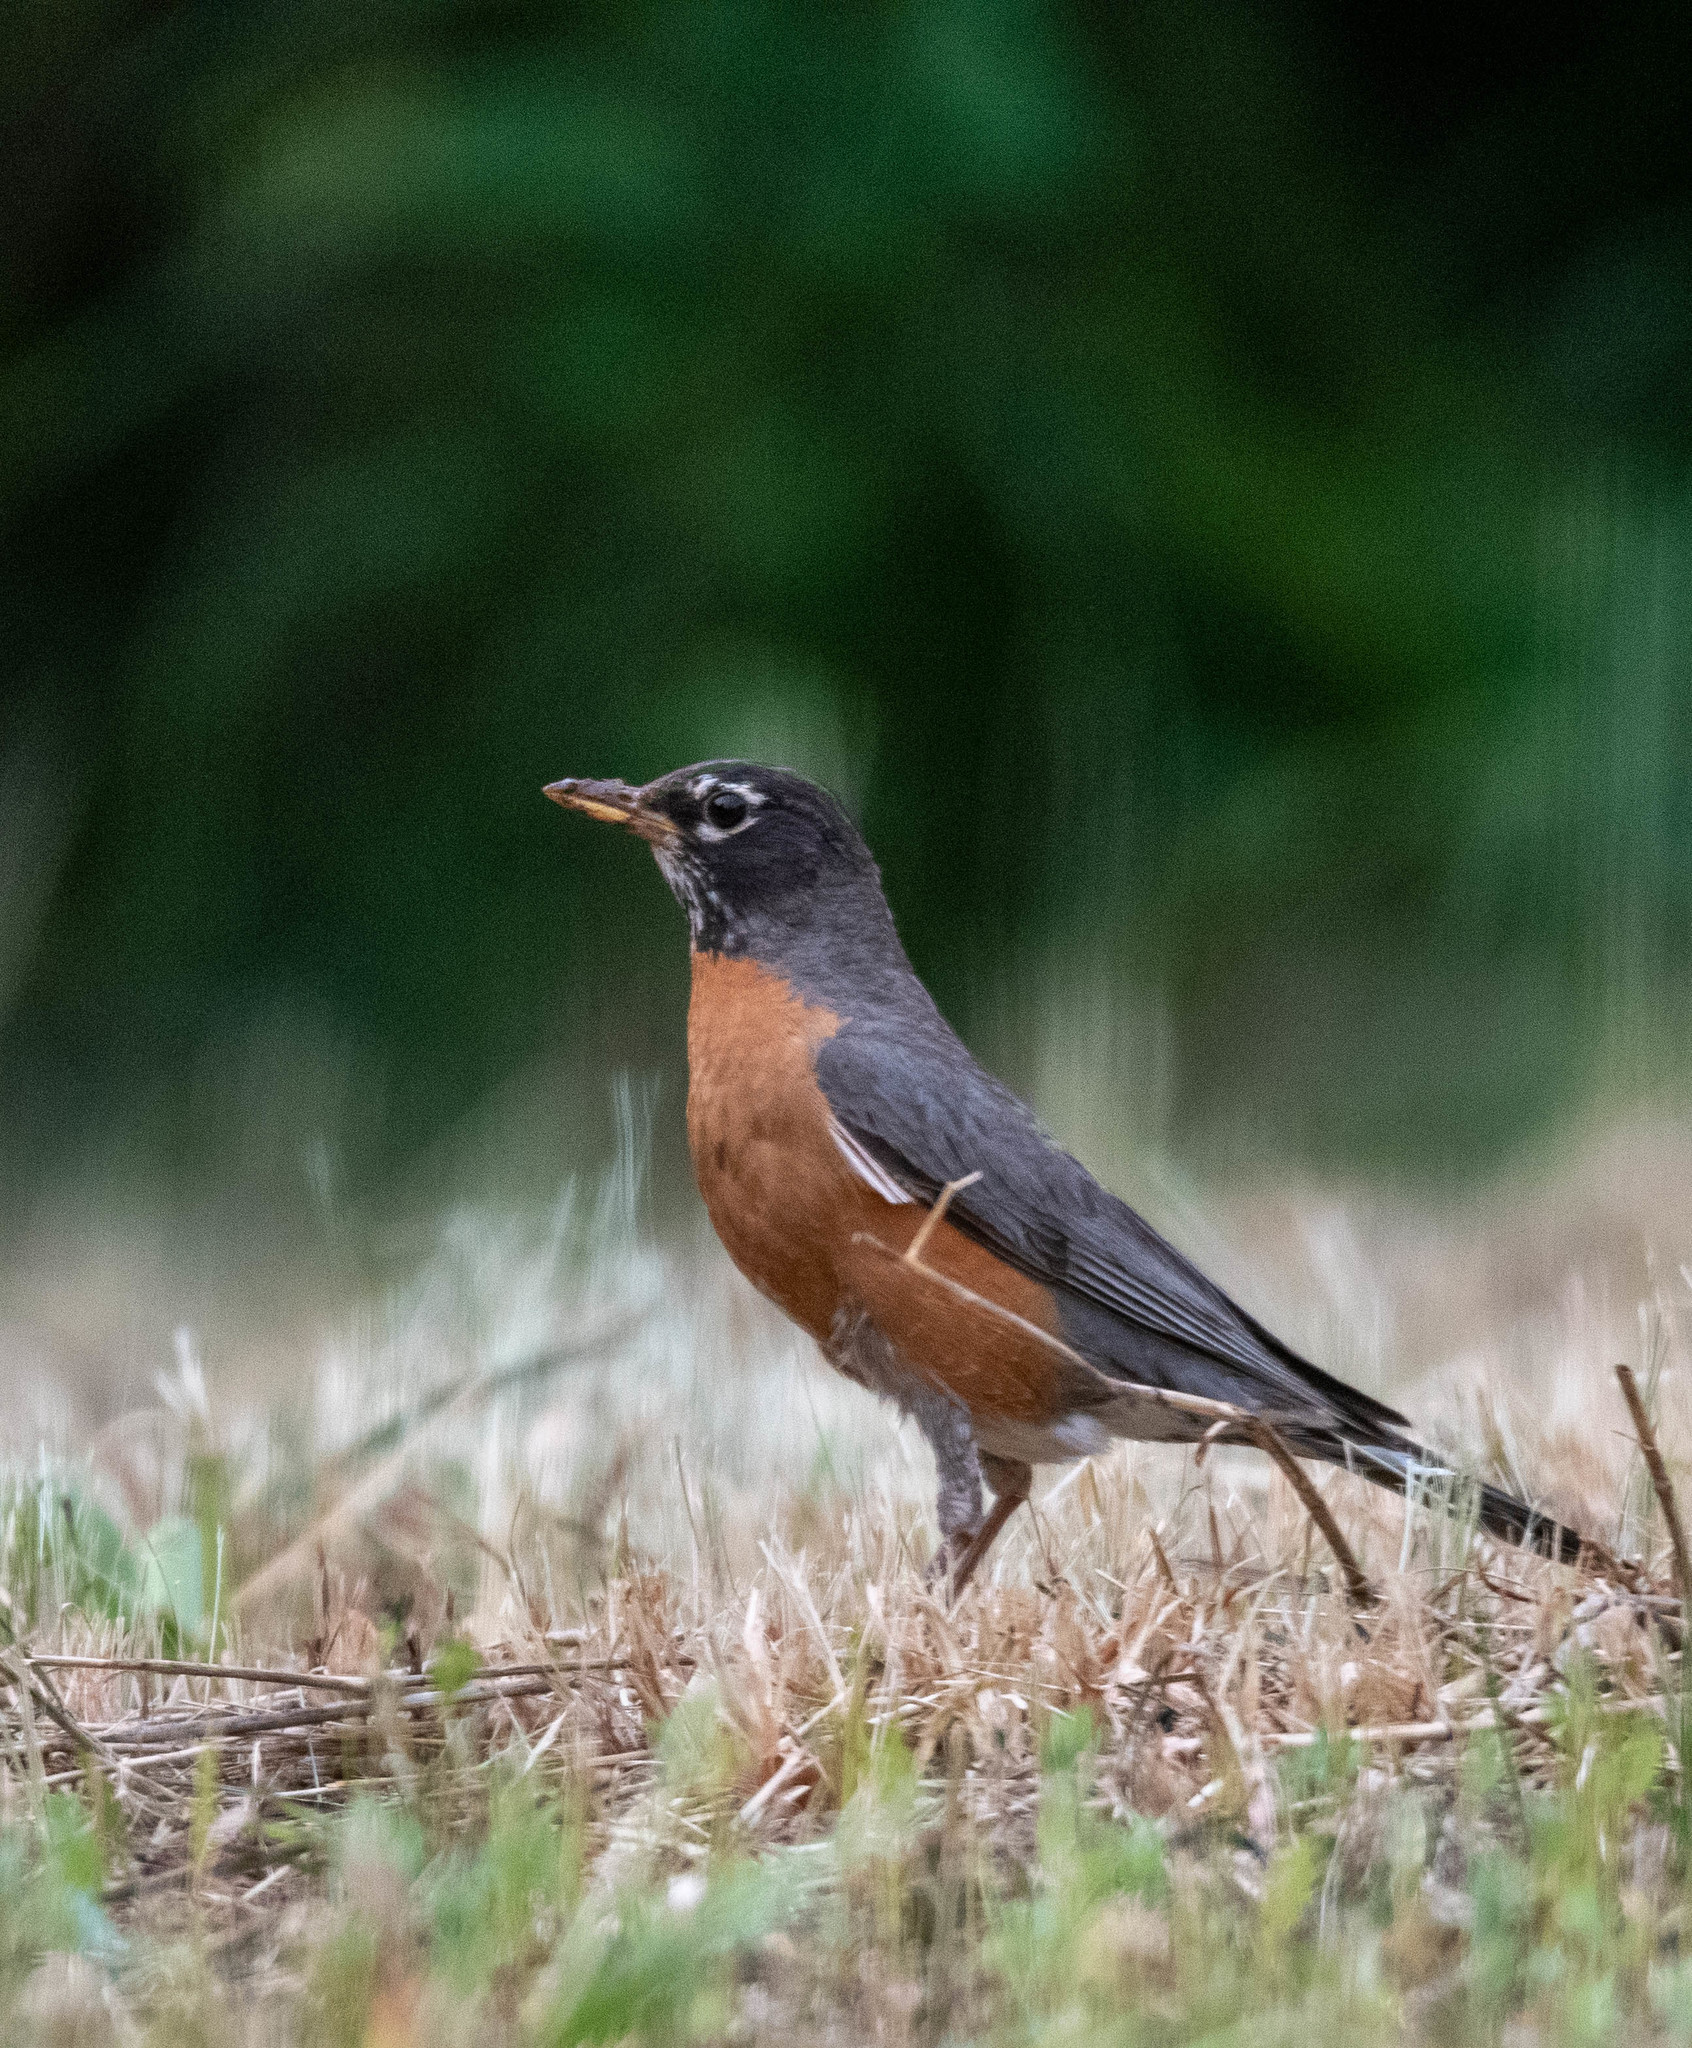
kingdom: Animalia
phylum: Chordata
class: Aves
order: Passeriformes
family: Turdidae
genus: Turdus
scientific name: Turdus migratorius
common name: American robin
